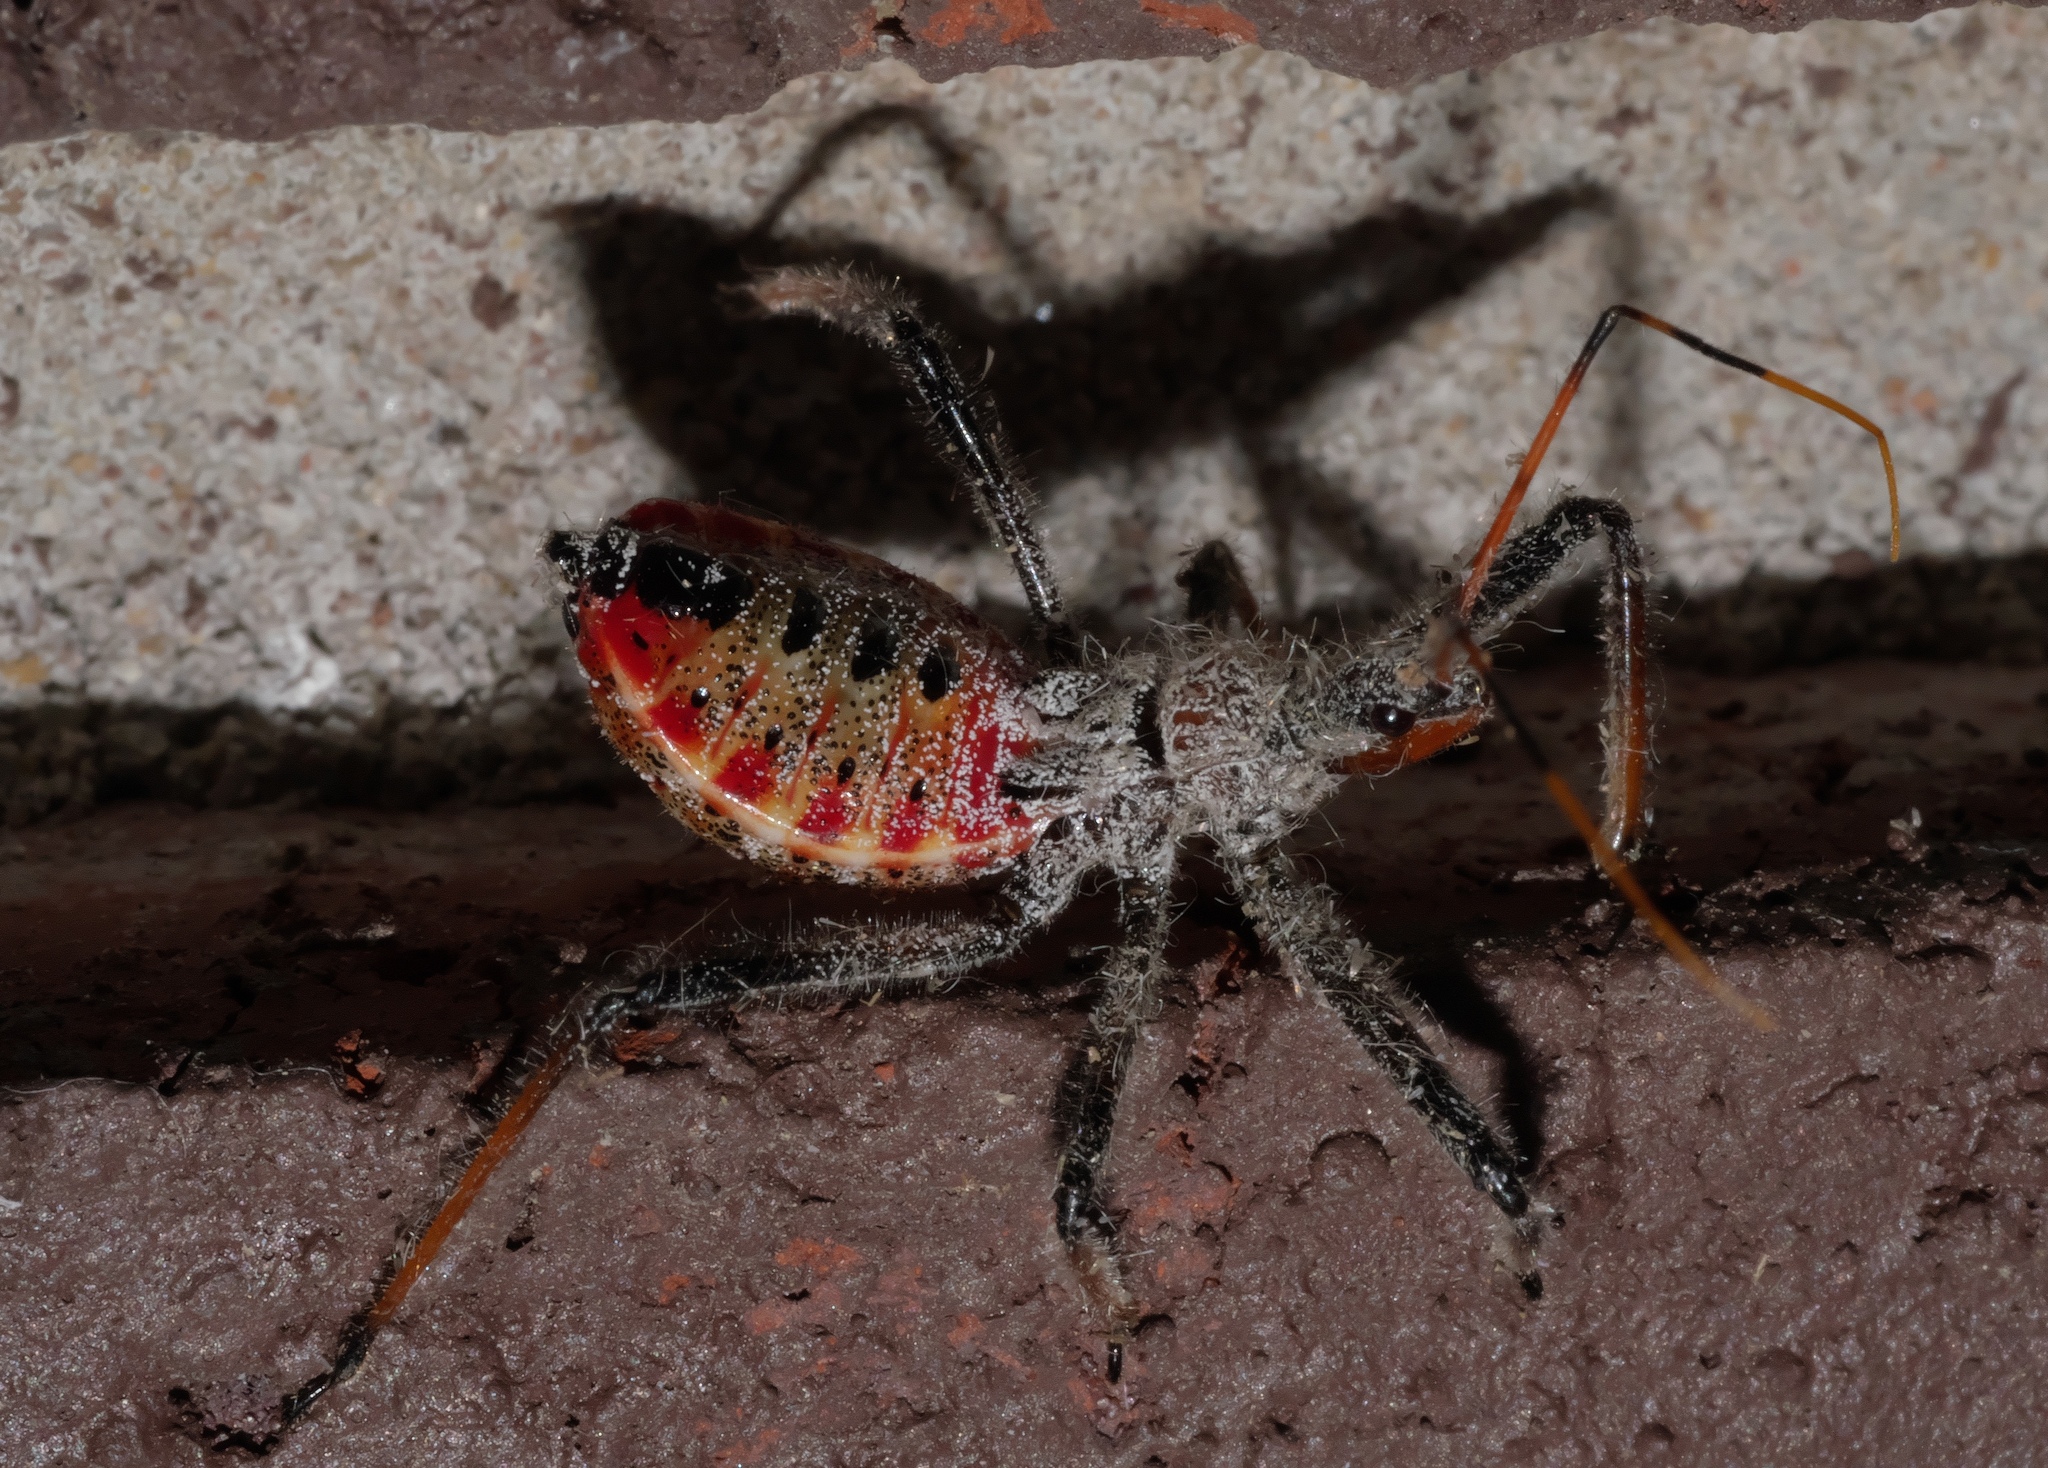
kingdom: Animalia
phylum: Arthropoda
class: Insecta
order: Hemiptera
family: Reduviidae
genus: Arilus
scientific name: Arilus cristatus
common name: North american wheel bug
